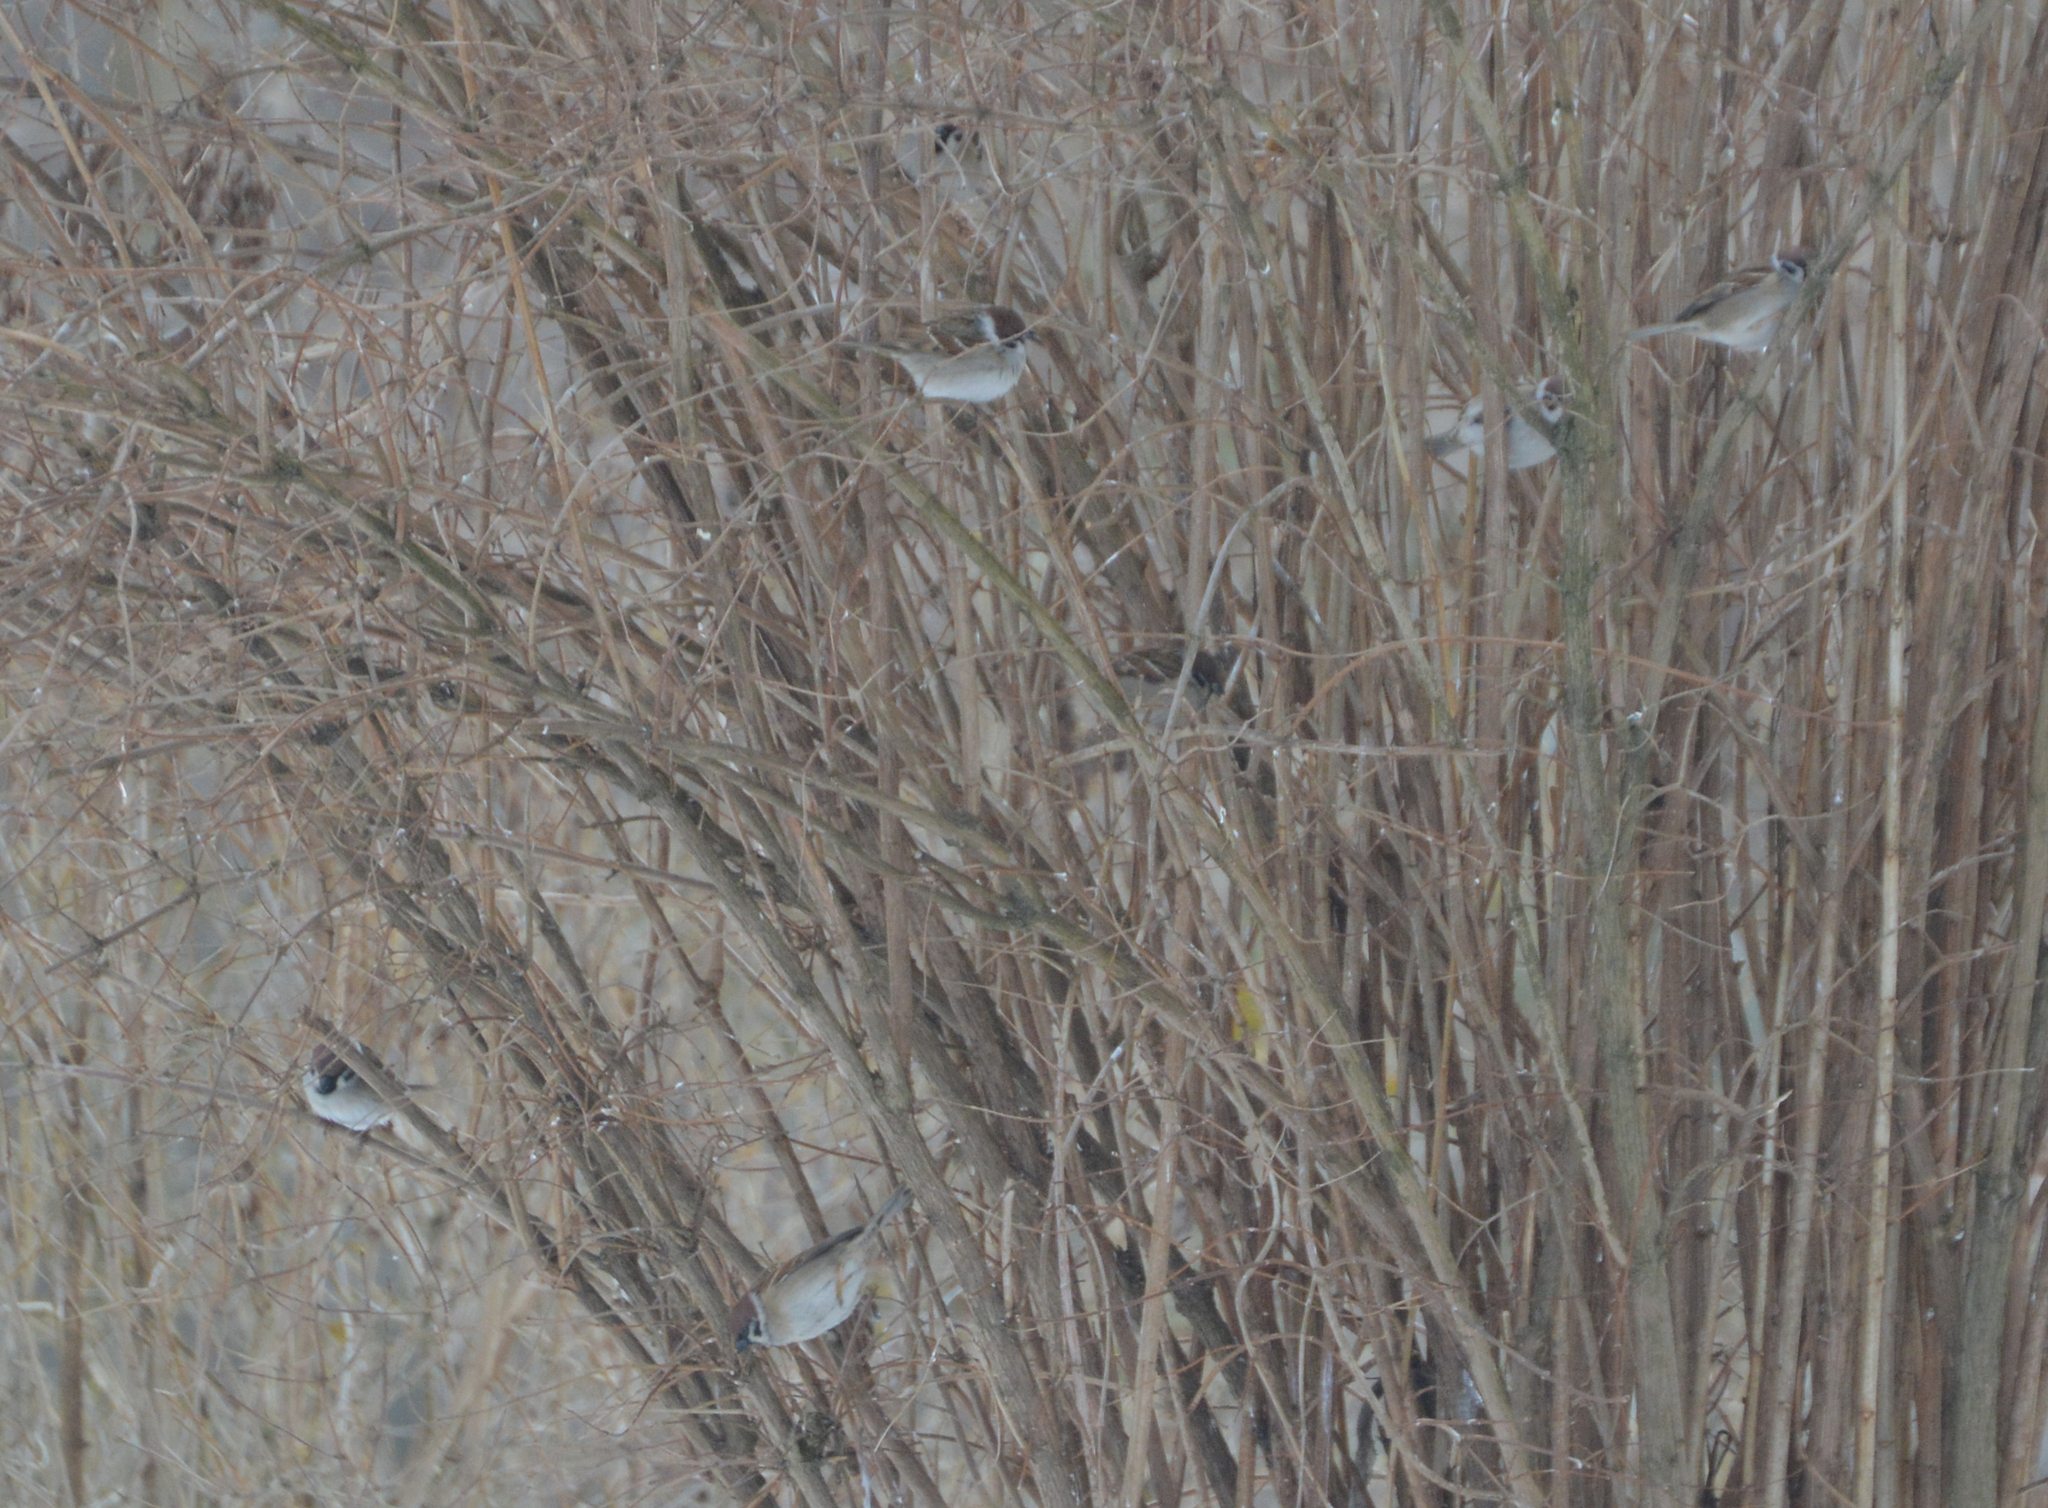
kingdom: Animalia
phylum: Chordata
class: Aves
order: Passeriformes
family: Passeridae
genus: Passer
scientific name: Passer montanus
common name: Eurasian tree sparrow
